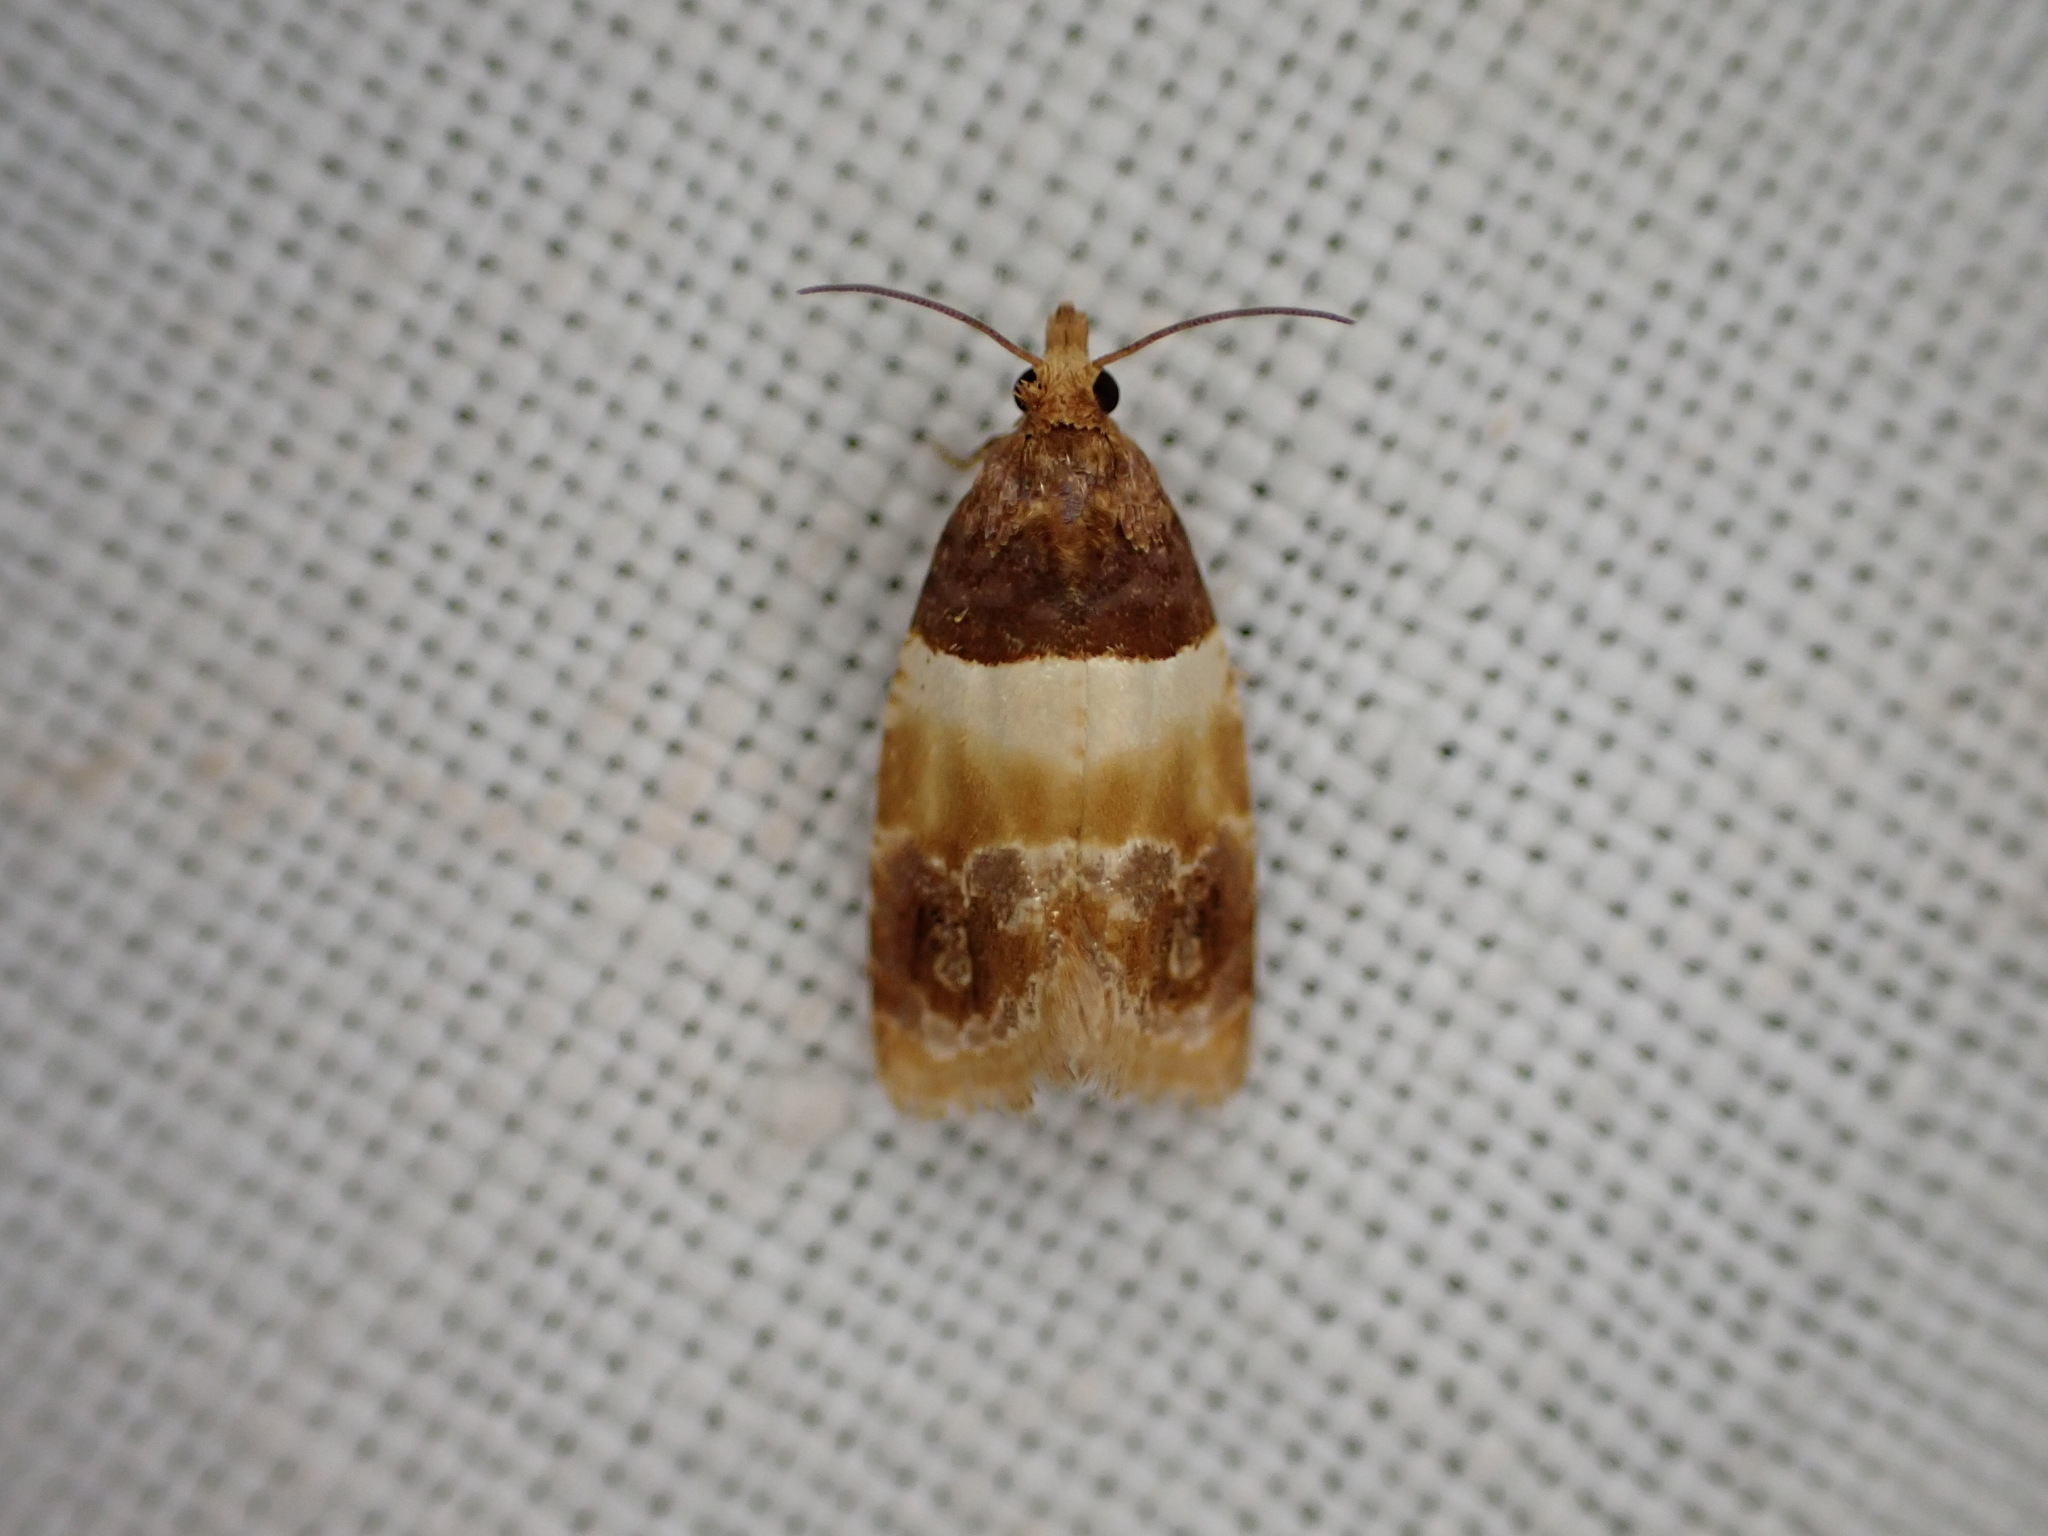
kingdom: Animalia
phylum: Arthropoda
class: Insecta
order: Lepidoptera
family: Tortricidae
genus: Epinotia
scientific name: Epinotia festivana
